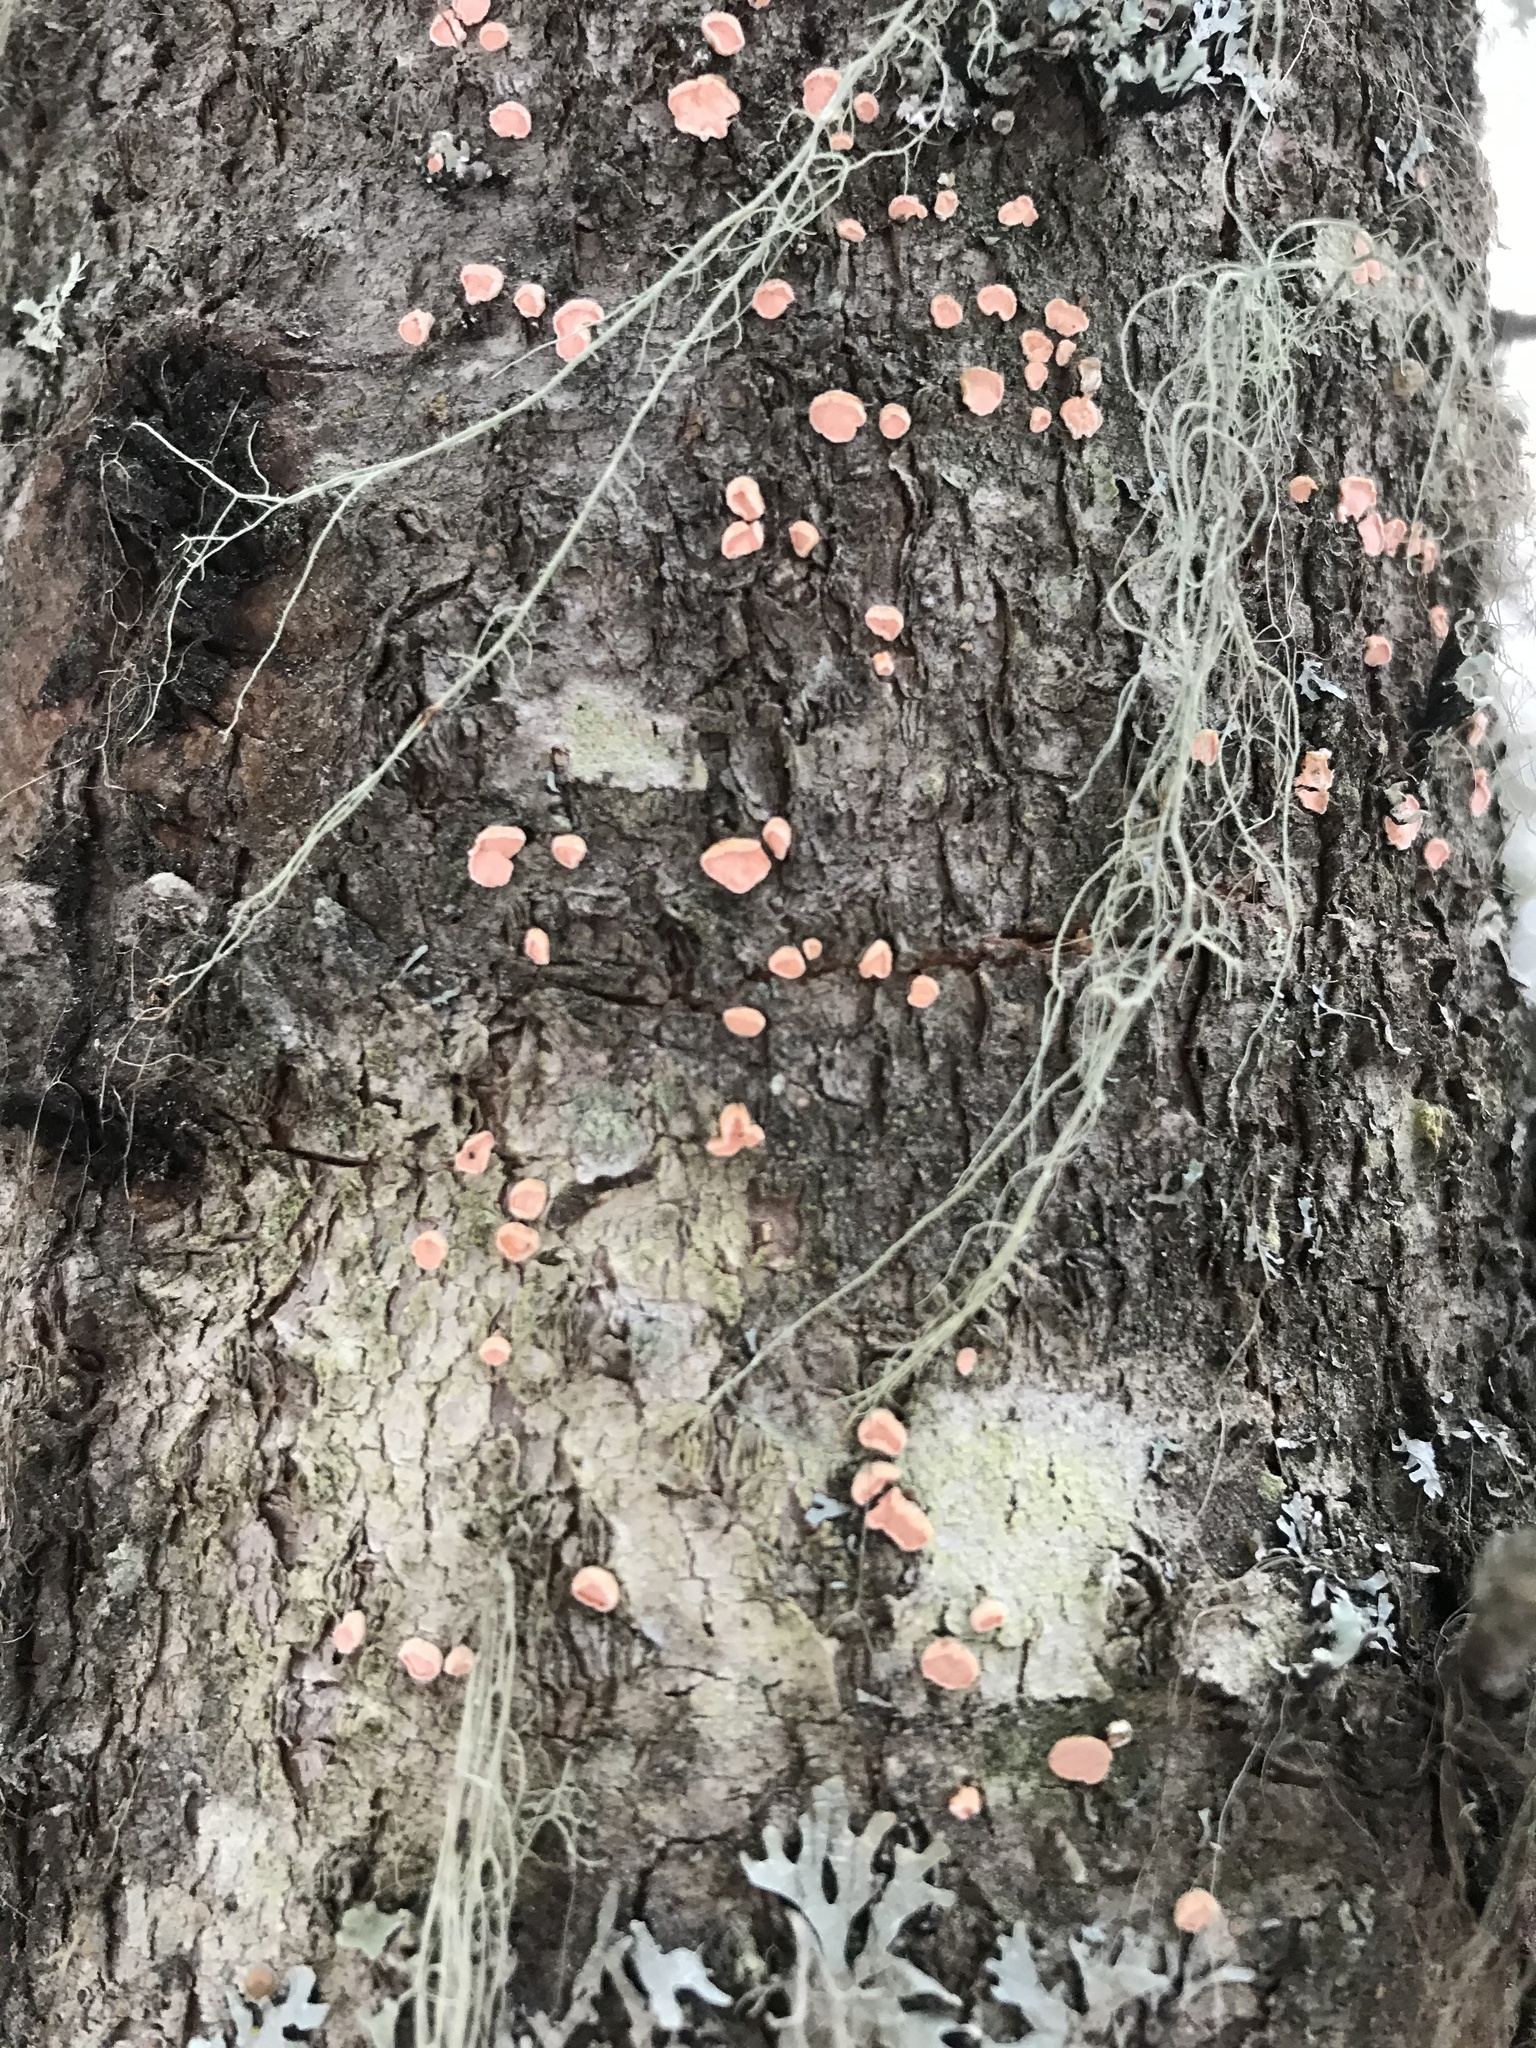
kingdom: Fungi
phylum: Ascomycota
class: Lecanoromycetes
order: Pertusariales
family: Icmadophilaceae
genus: Icmadophila
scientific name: Icmadophila ericetorum
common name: Candy lichen
